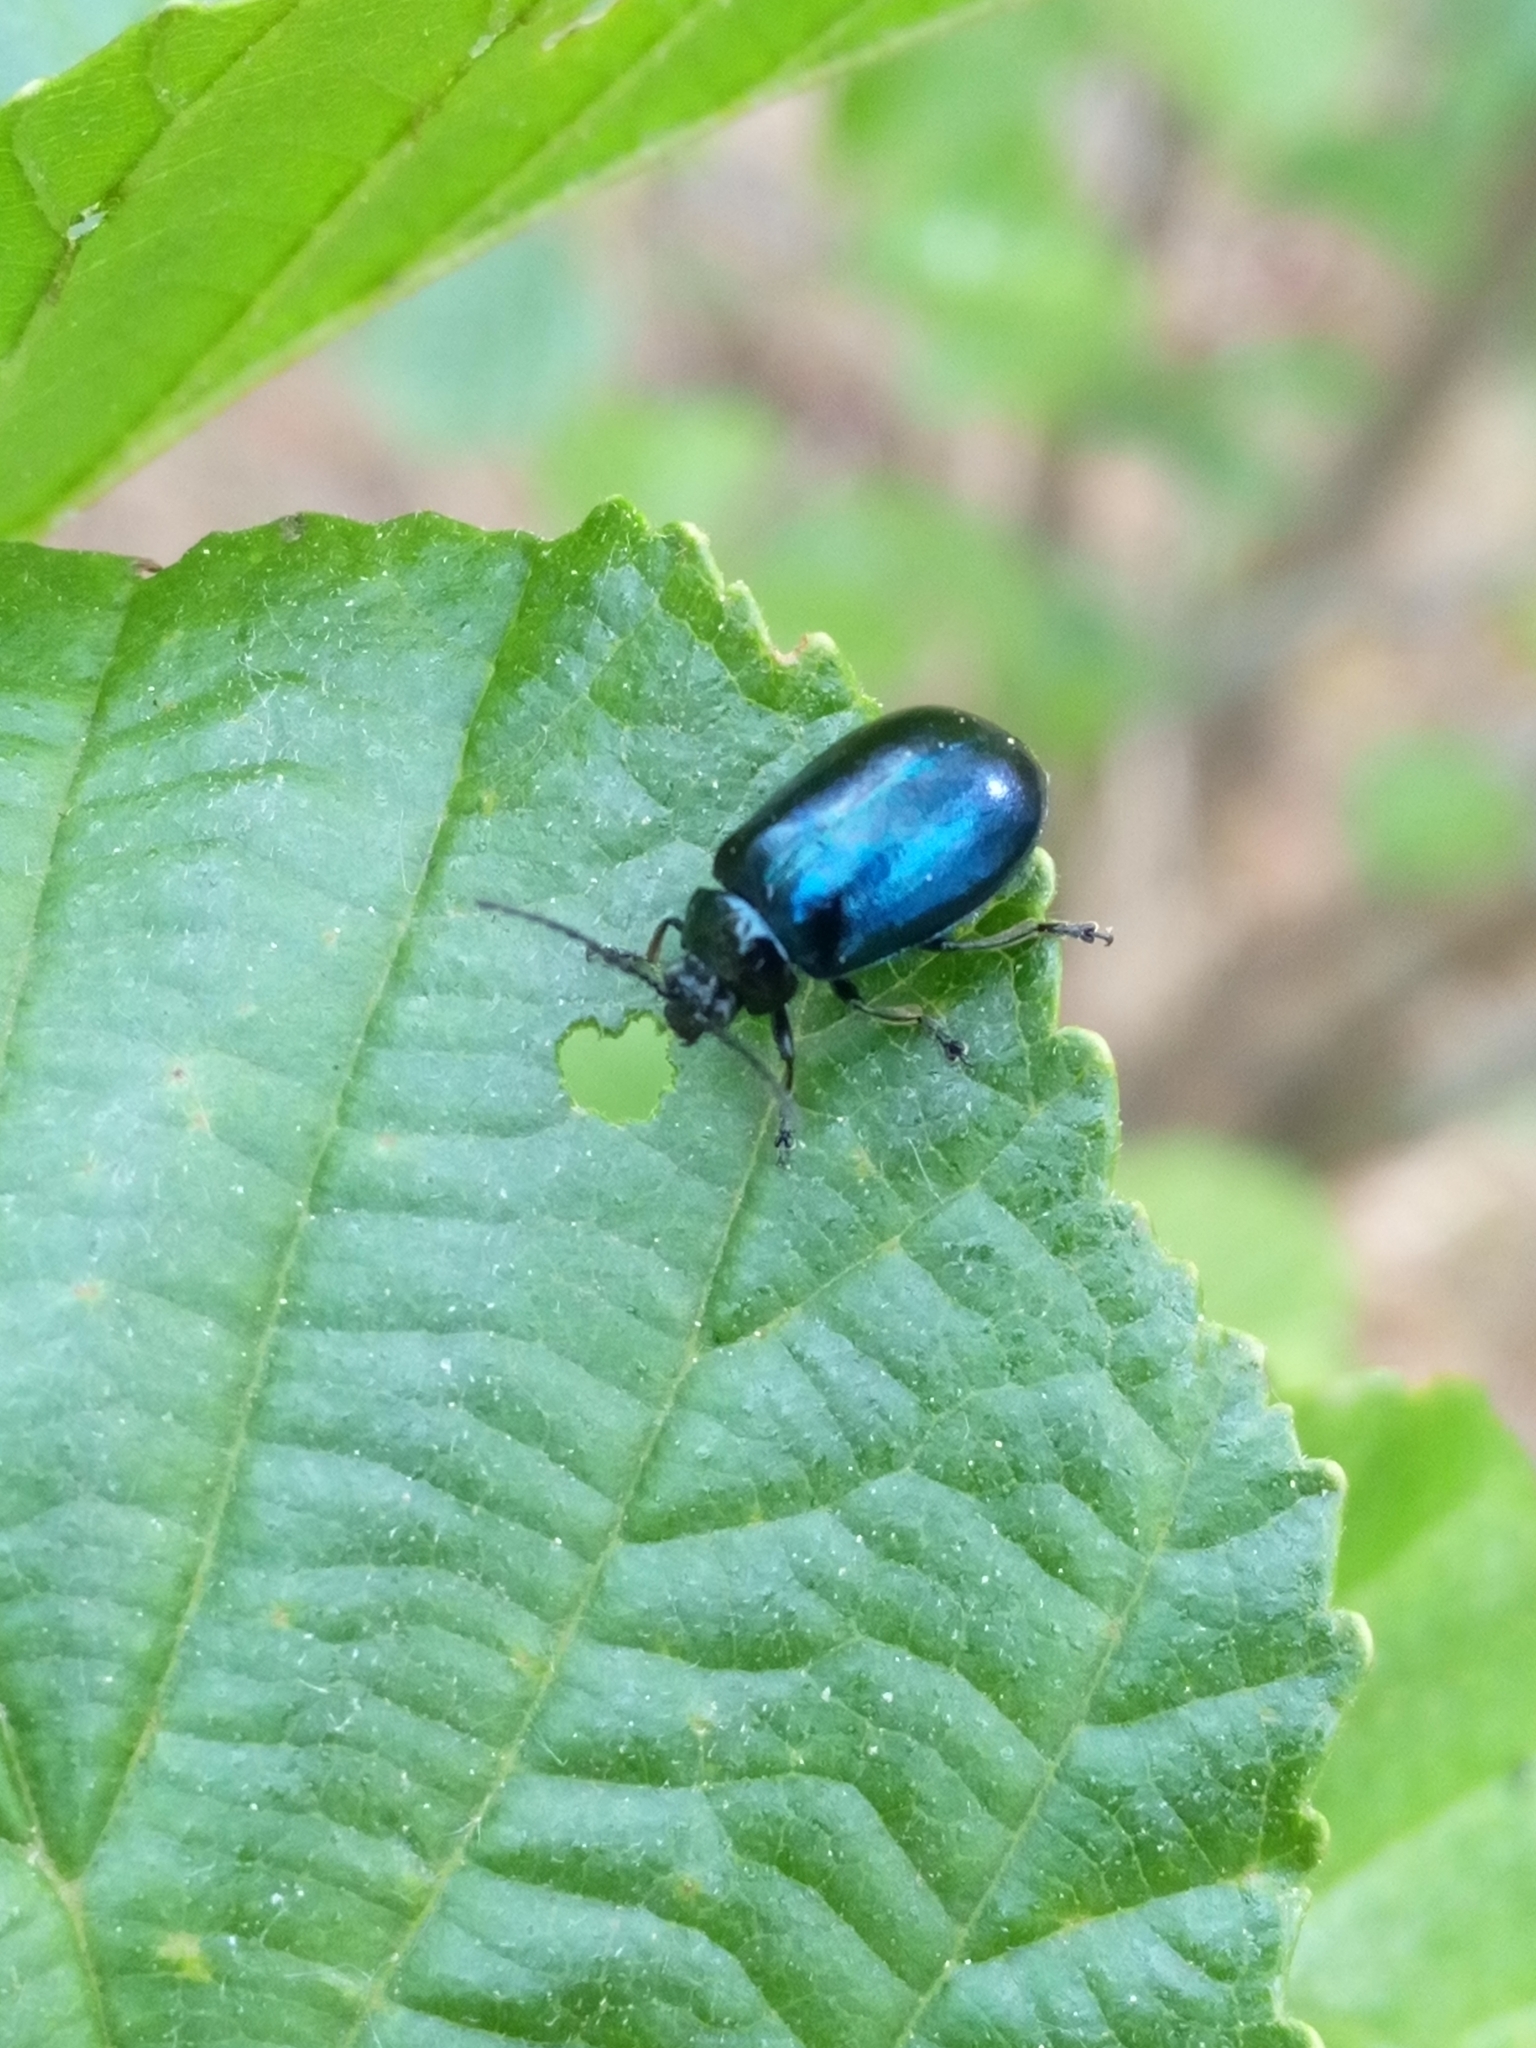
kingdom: Animalia
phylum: Arthropoda
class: Insecta
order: Coleoptera
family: Chrysomelidae
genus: Agelastica
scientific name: Agelastica alni
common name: Alder leaf beetle
